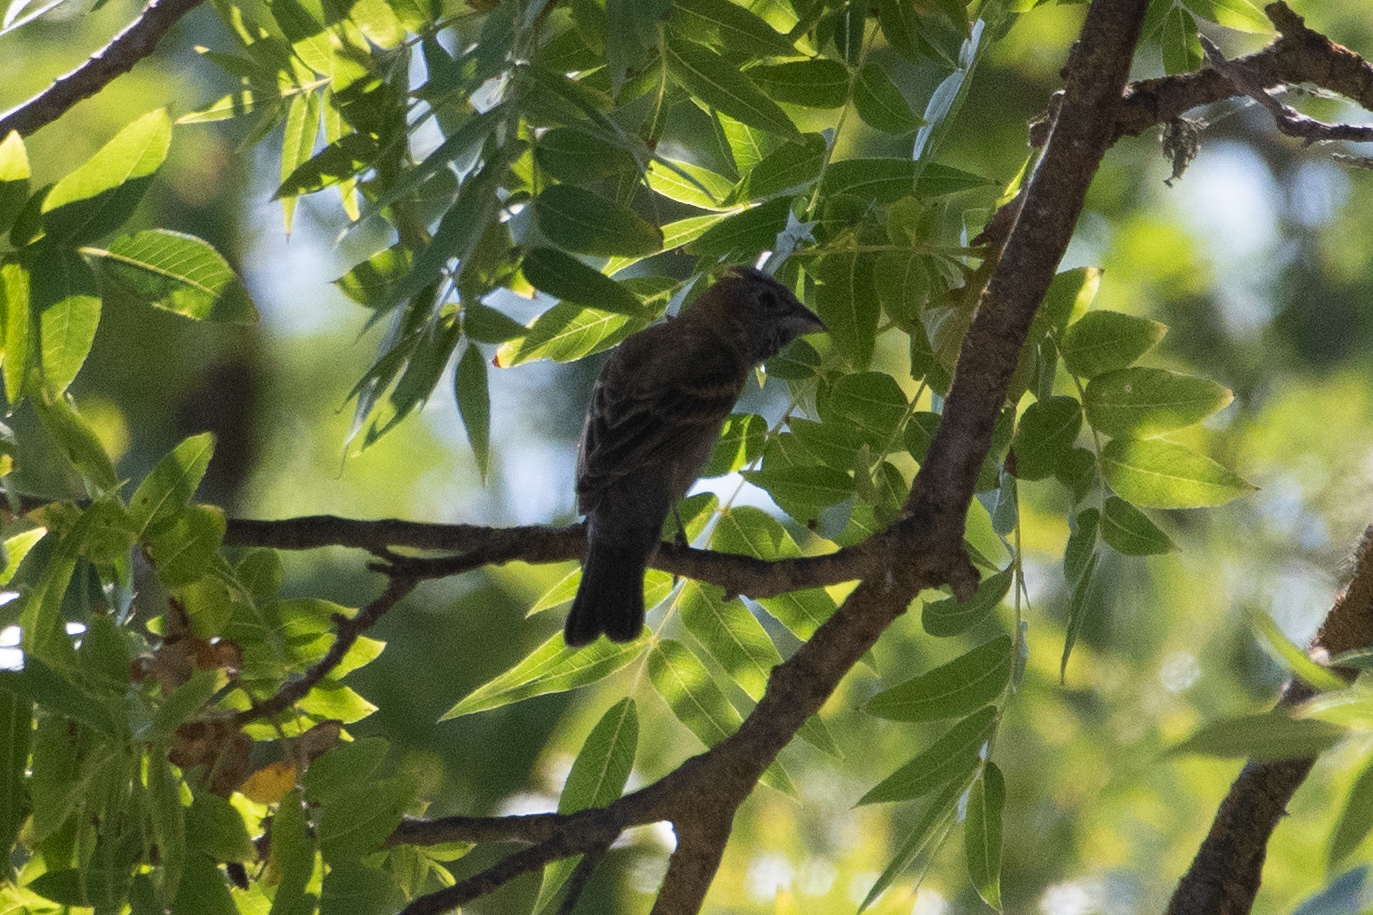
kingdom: Animalia
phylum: Chordata
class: Aves
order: Passeriformes
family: Cardinalidae
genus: Passerina
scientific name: Passerina caerulea
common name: Blue grosbeak
